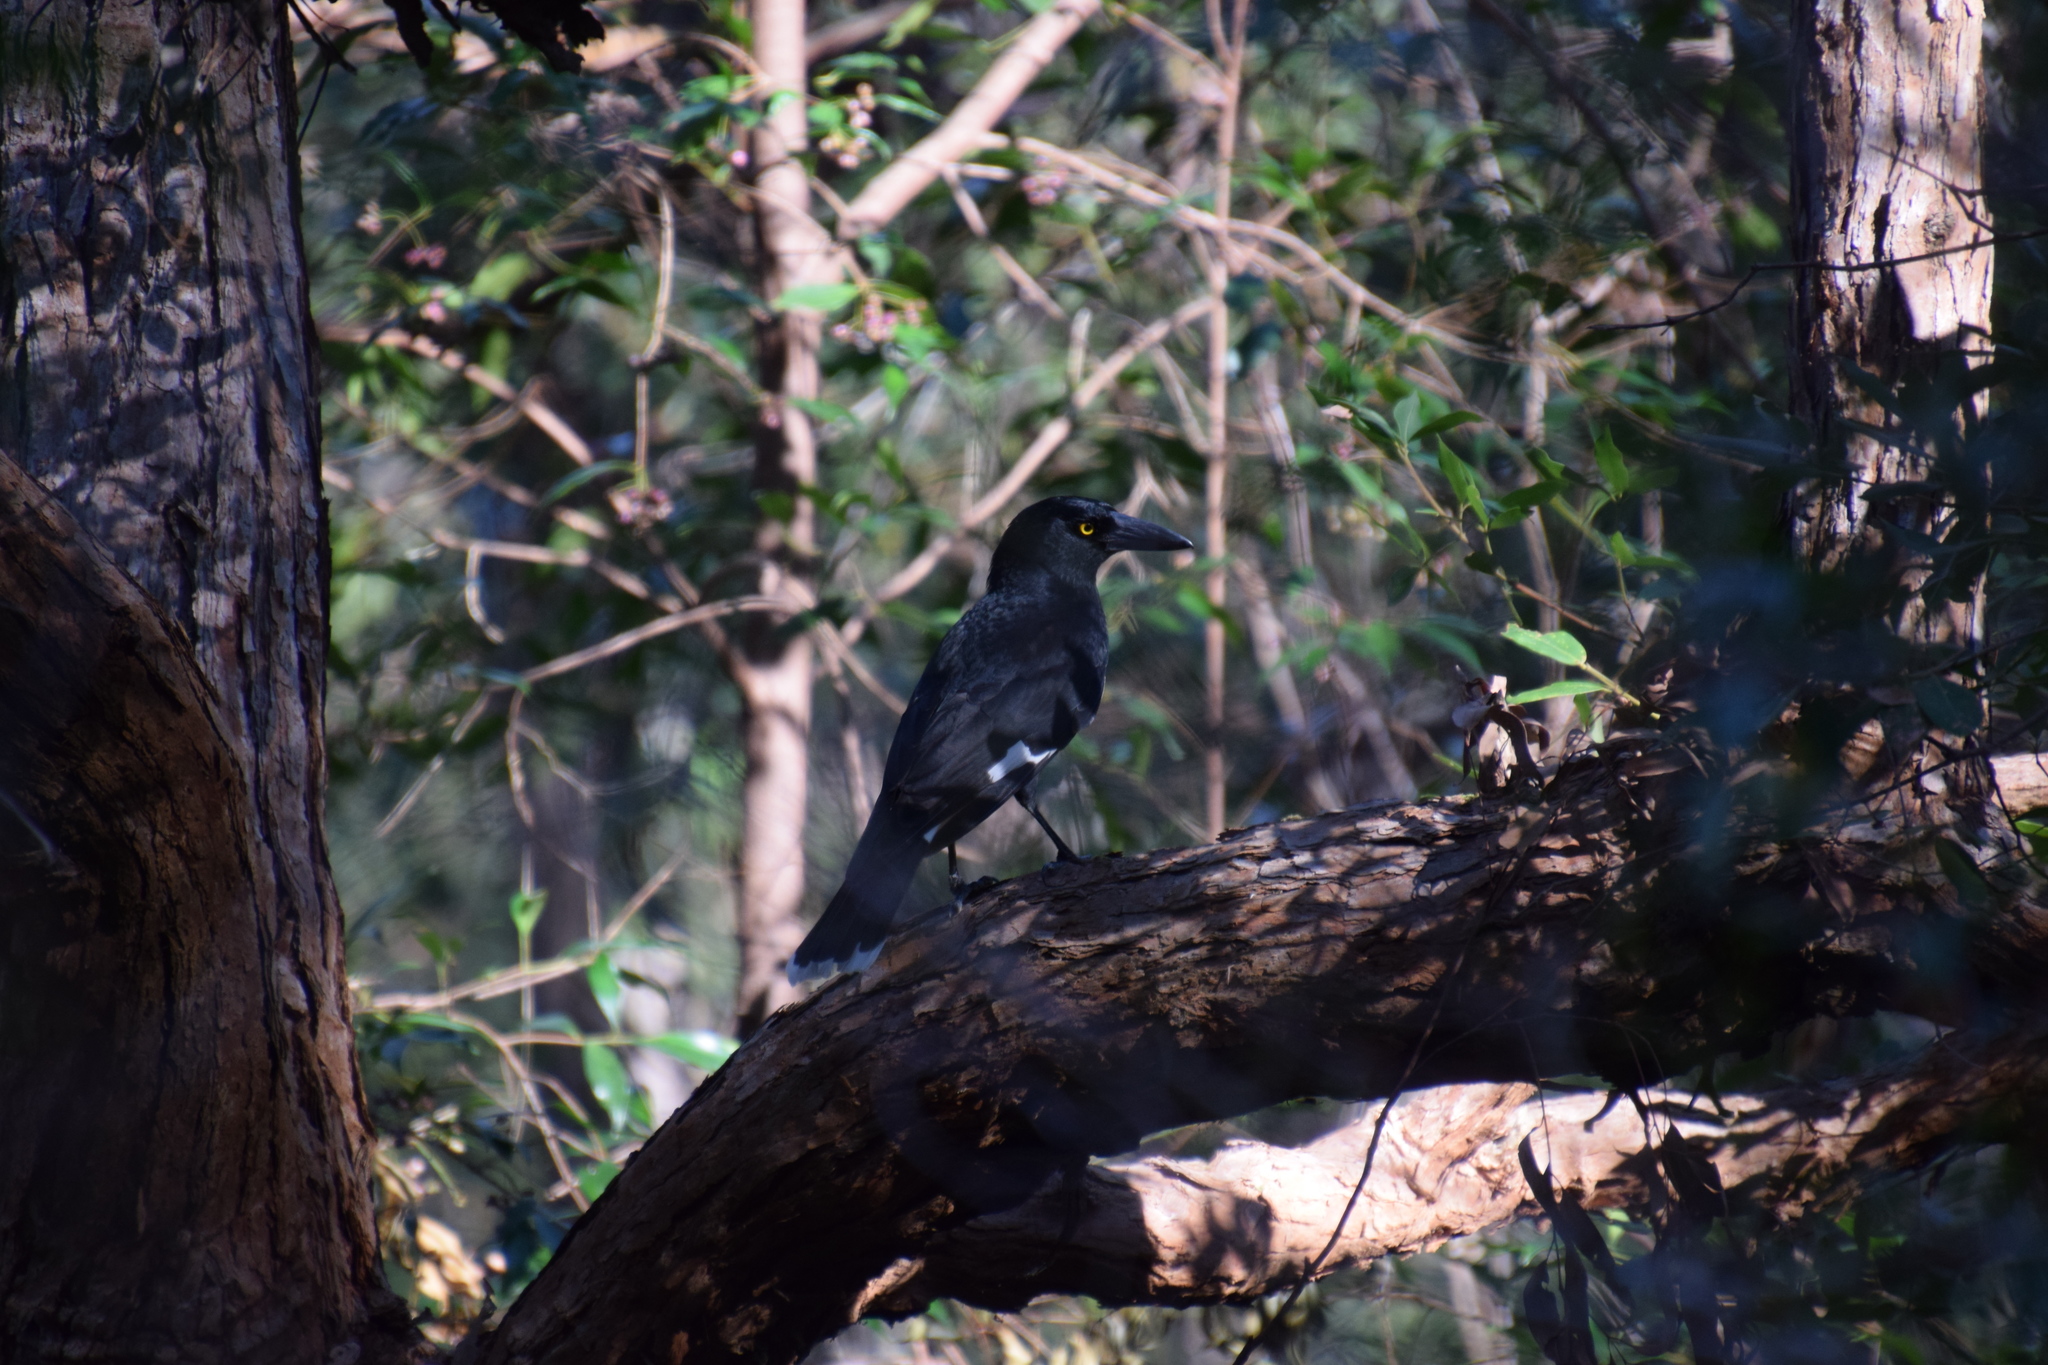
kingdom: Animalia
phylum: Chordata
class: Aves
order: Passeriformes
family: Cracticidae
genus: Strepera
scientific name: Strepera graculina
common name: Pied currawong
